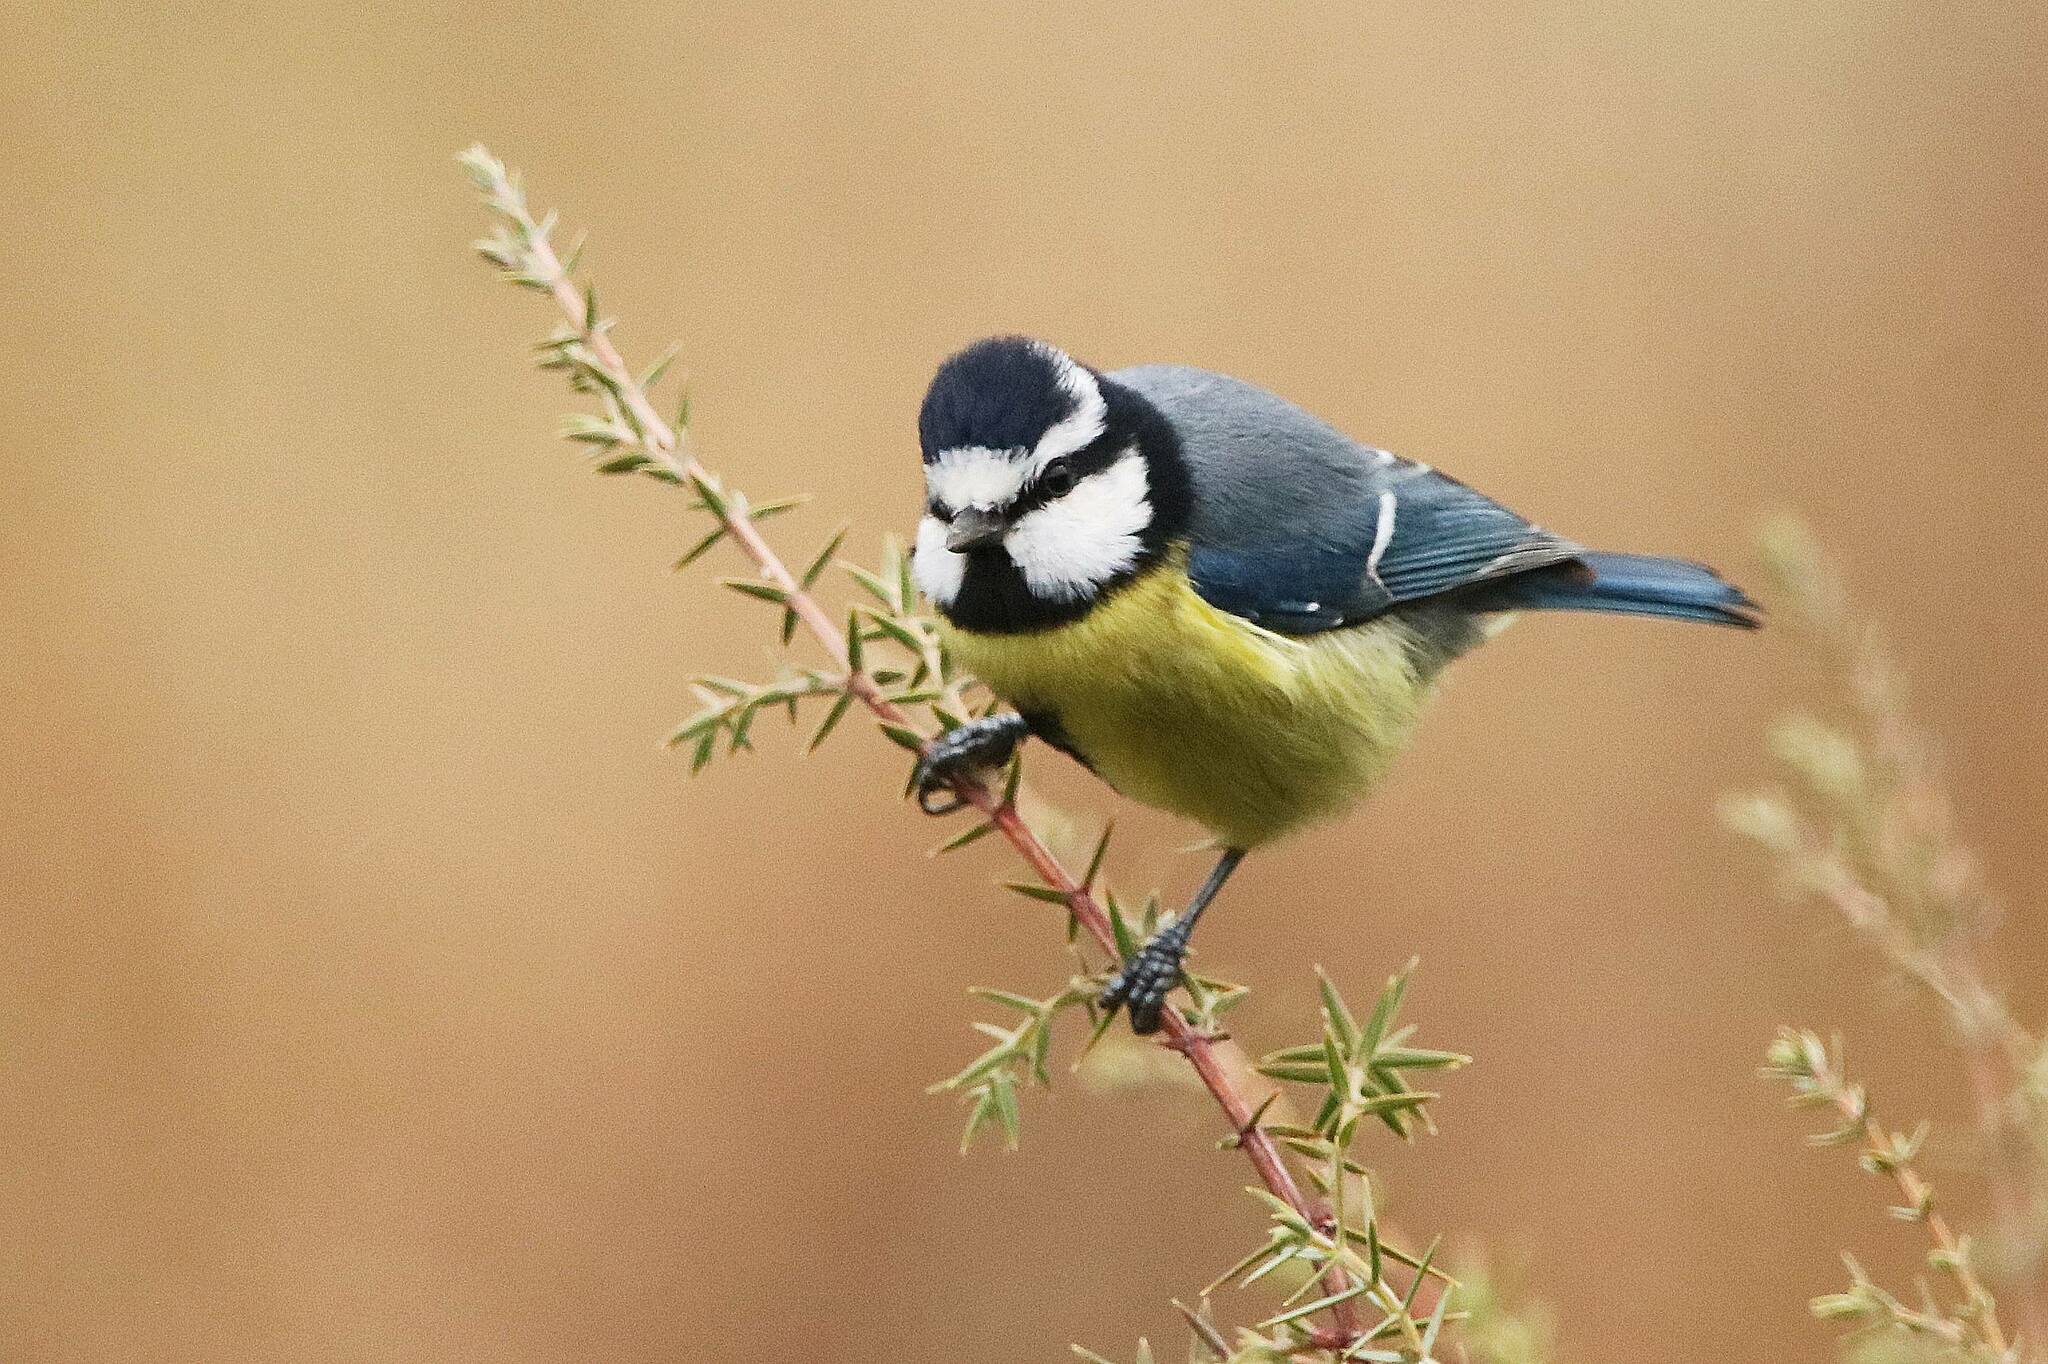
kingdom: Animalia
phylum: Chordata
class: Aves
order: Passeriformes
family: Paridae
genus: Cyanistes
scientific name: Cyanistes teneriffae
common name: African blue tit
